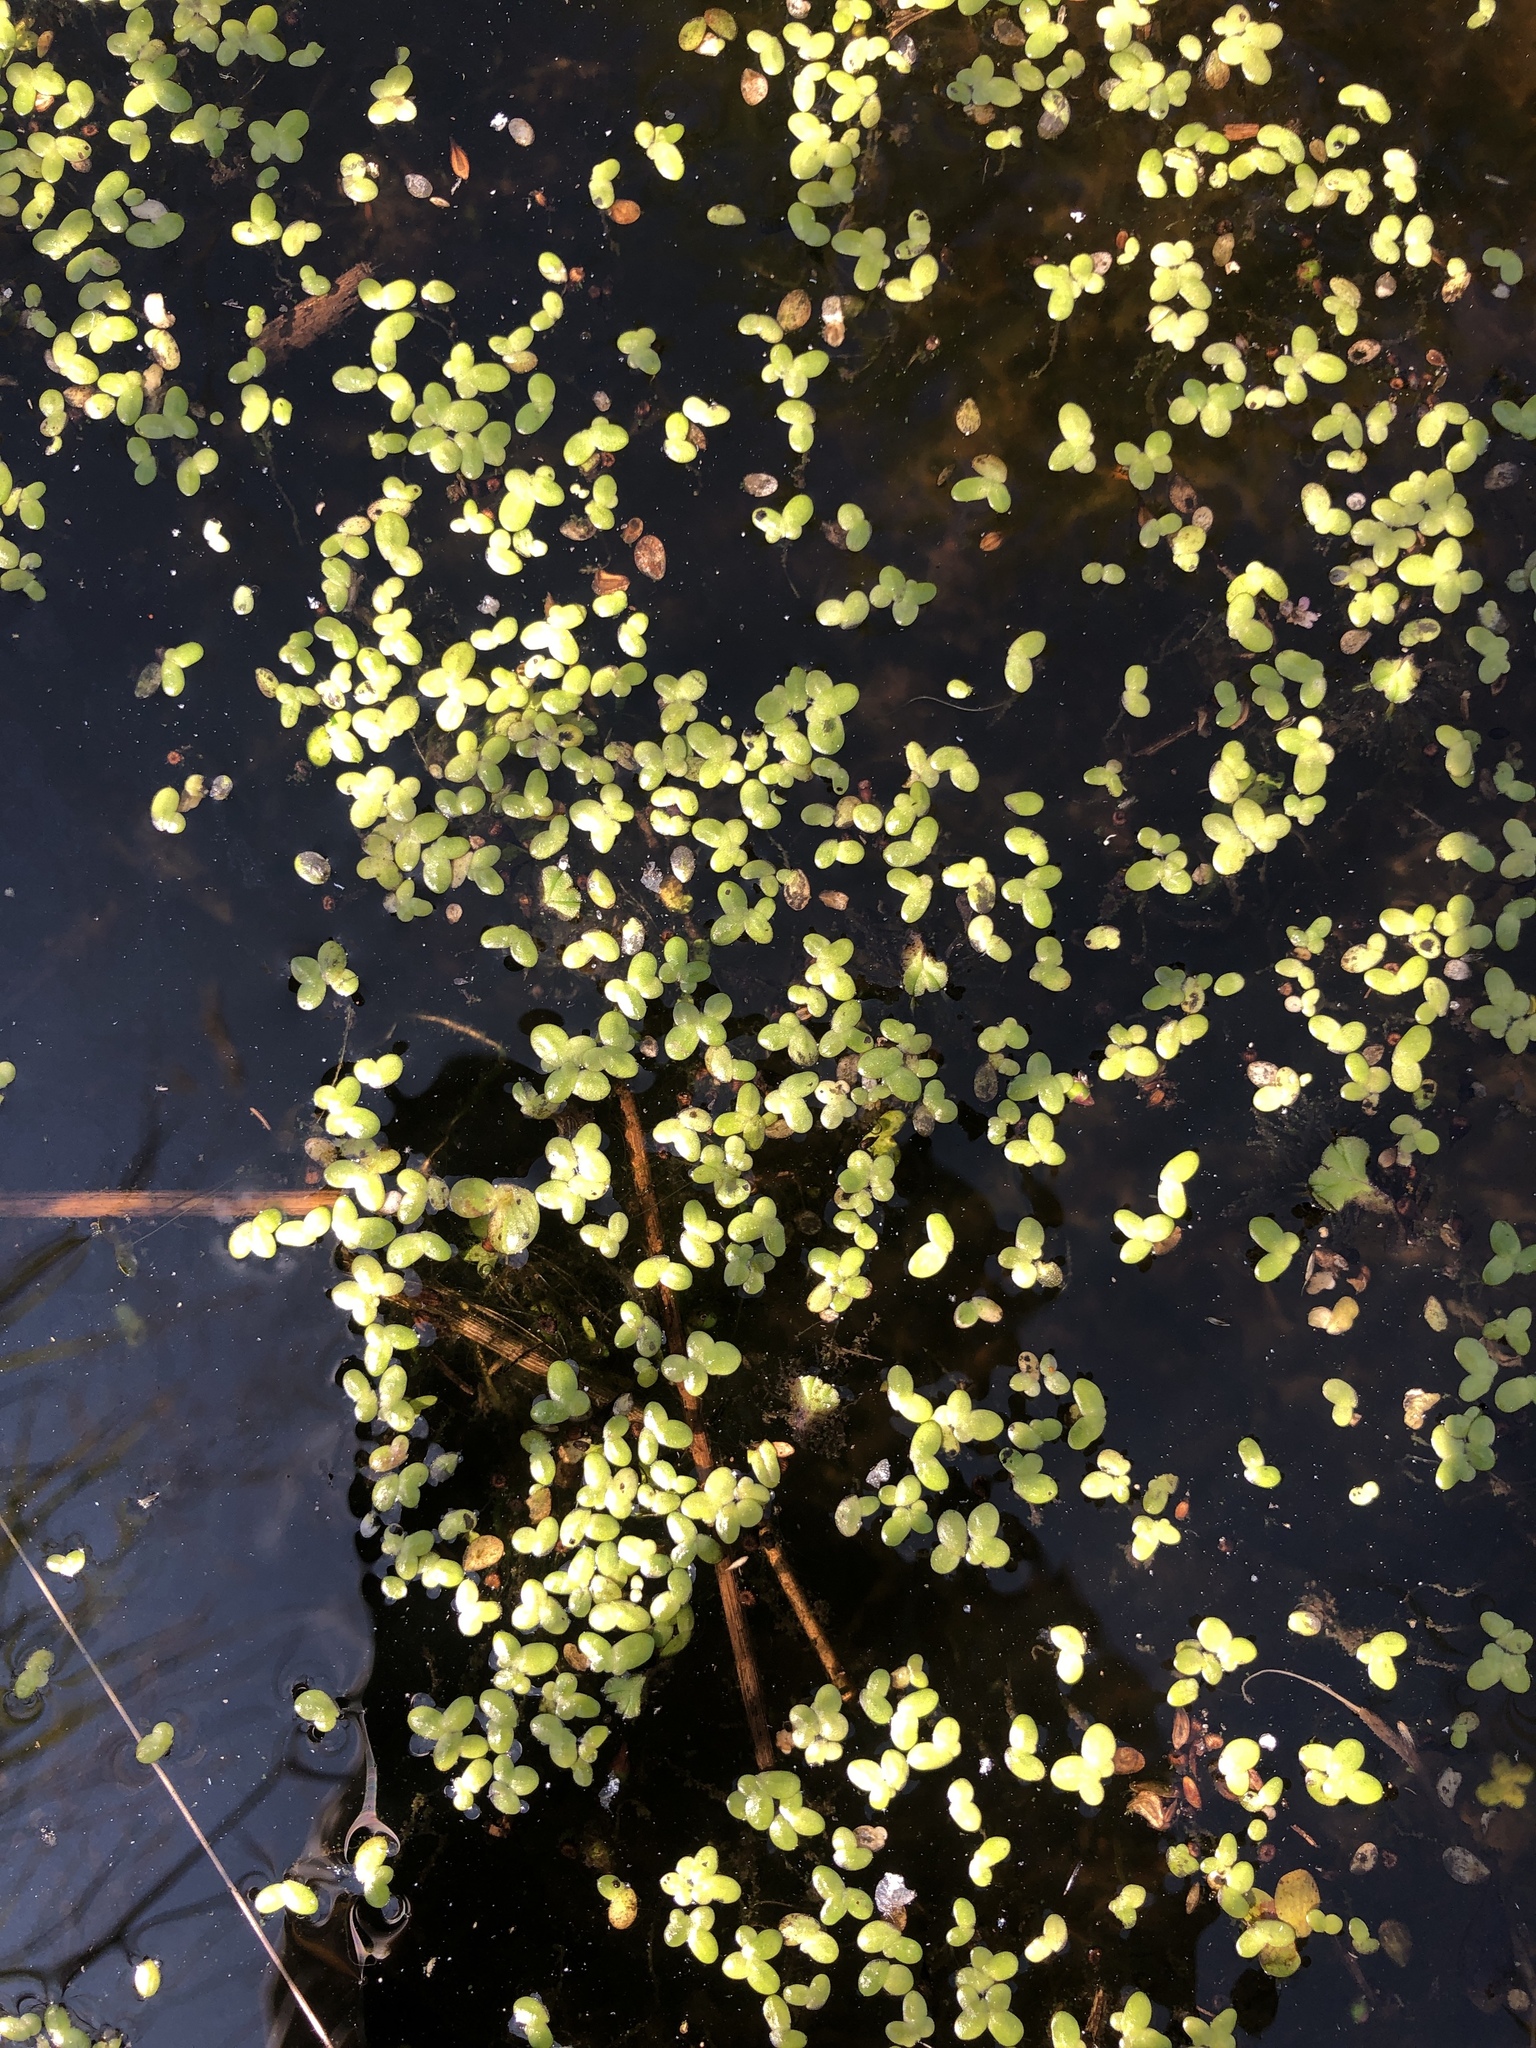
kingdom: Plantae
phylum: Tracheophyta
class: Liliopsida
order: Alismatales
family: Araceae
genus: Lemna
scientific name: Lemna minor
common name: Common duckweed
